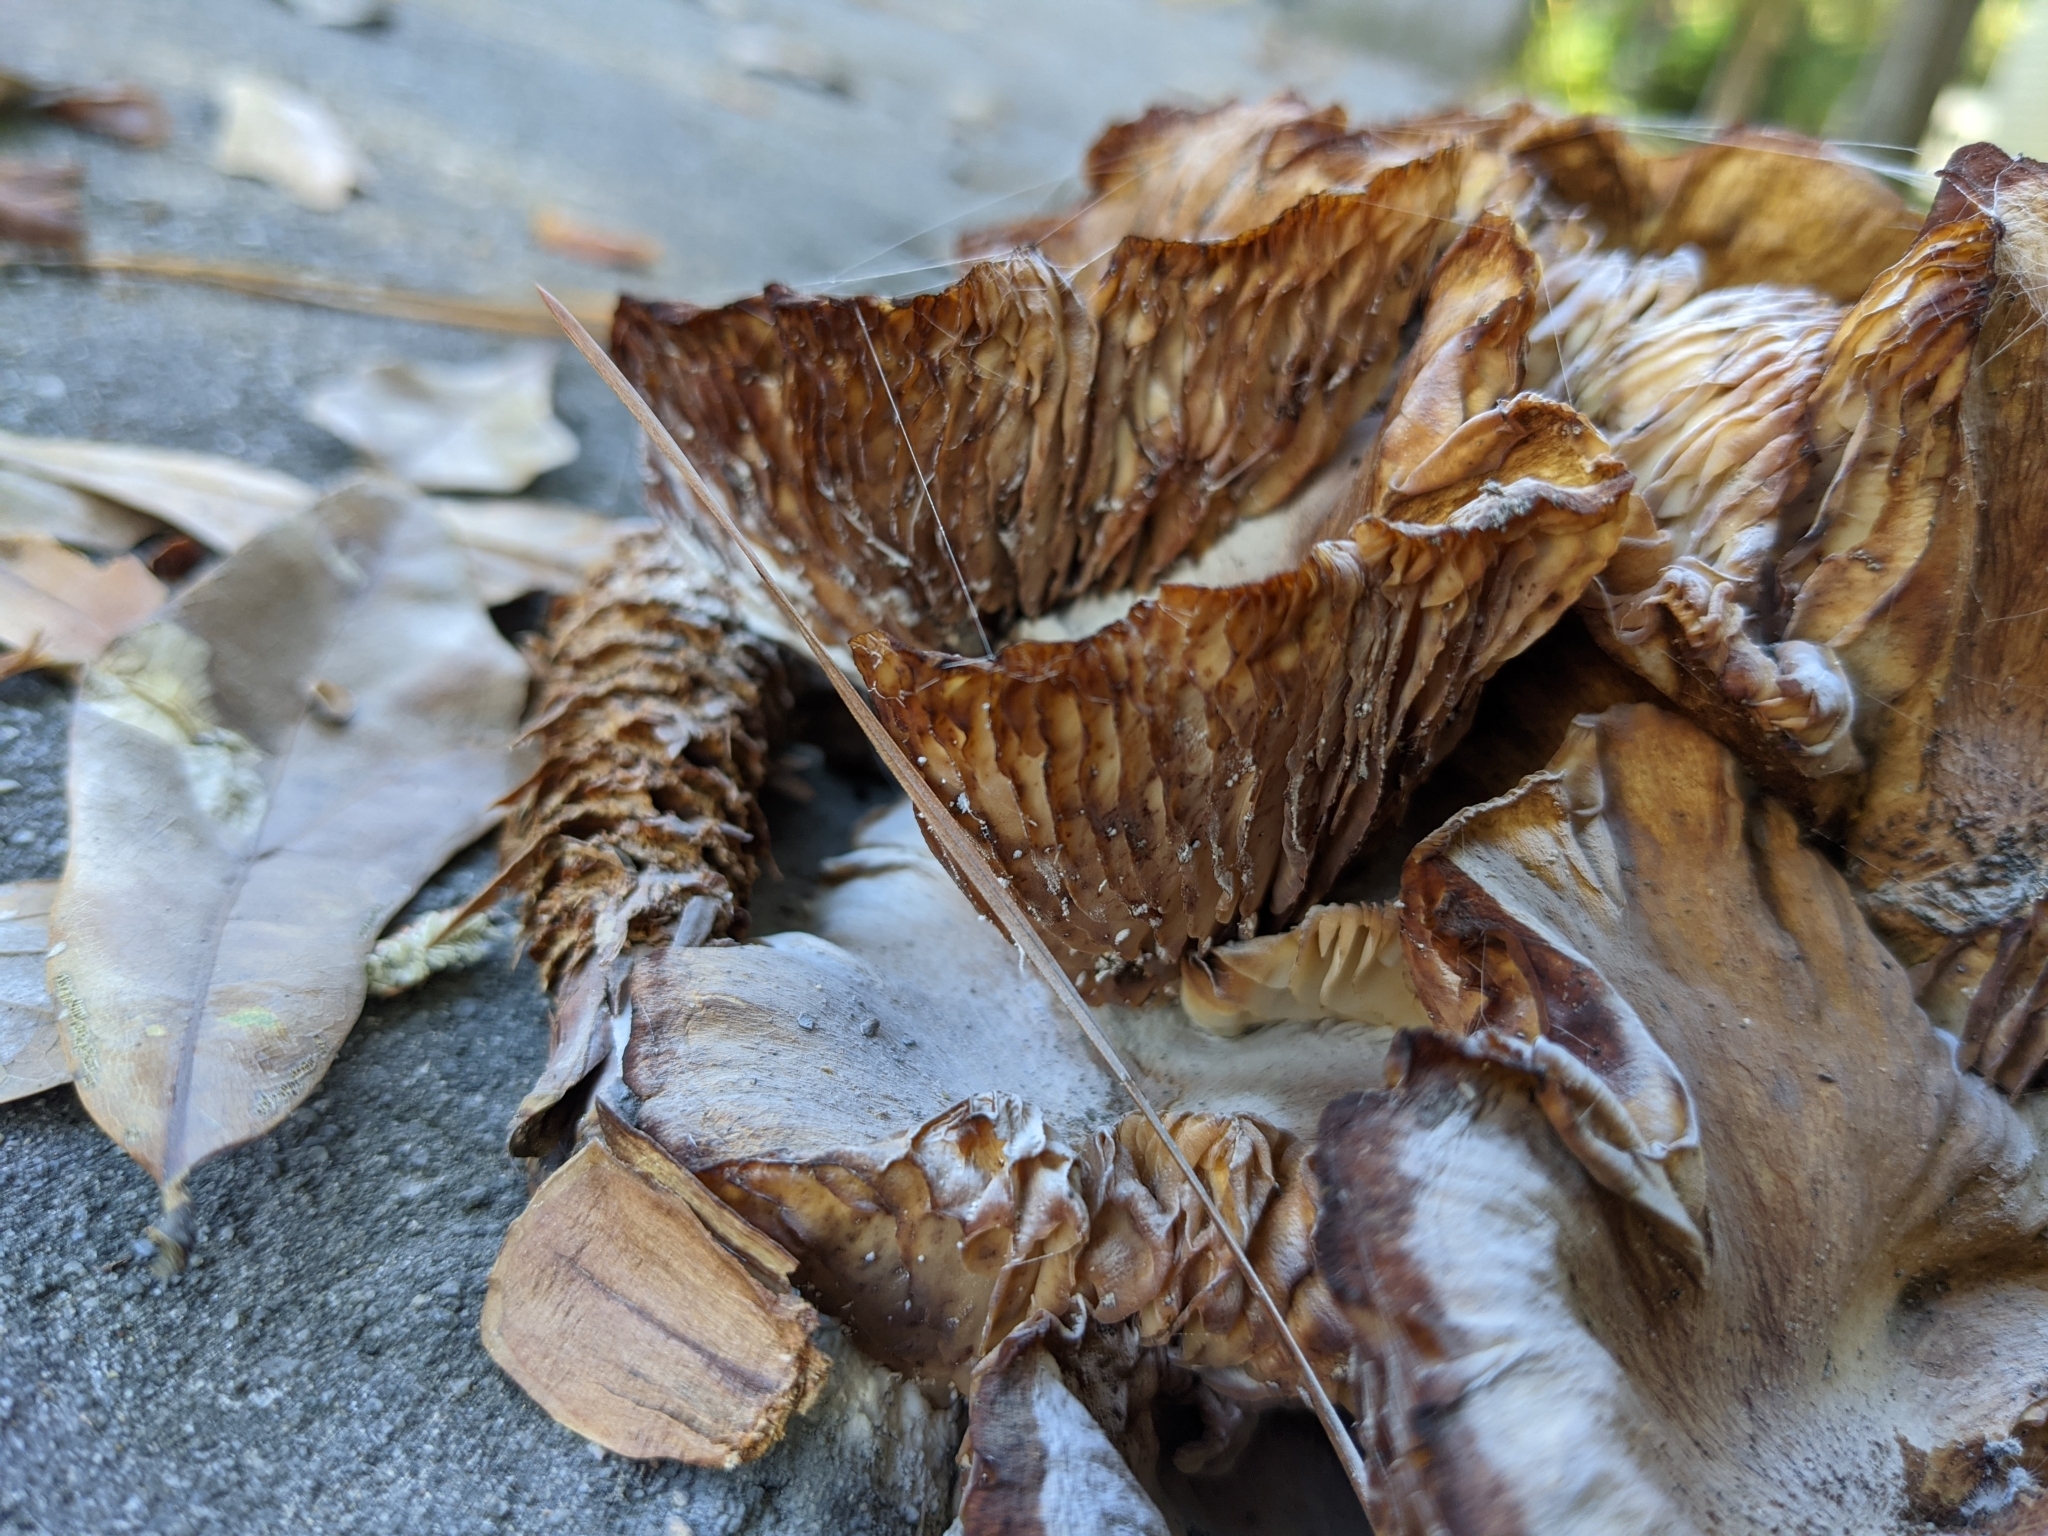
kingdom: Fungi
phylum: Basidiomycota
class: Agaricomycetes
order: Agaricales
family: Physalacriaceae
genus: Desarmillaria
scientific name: Desarmillaria caespitosa
